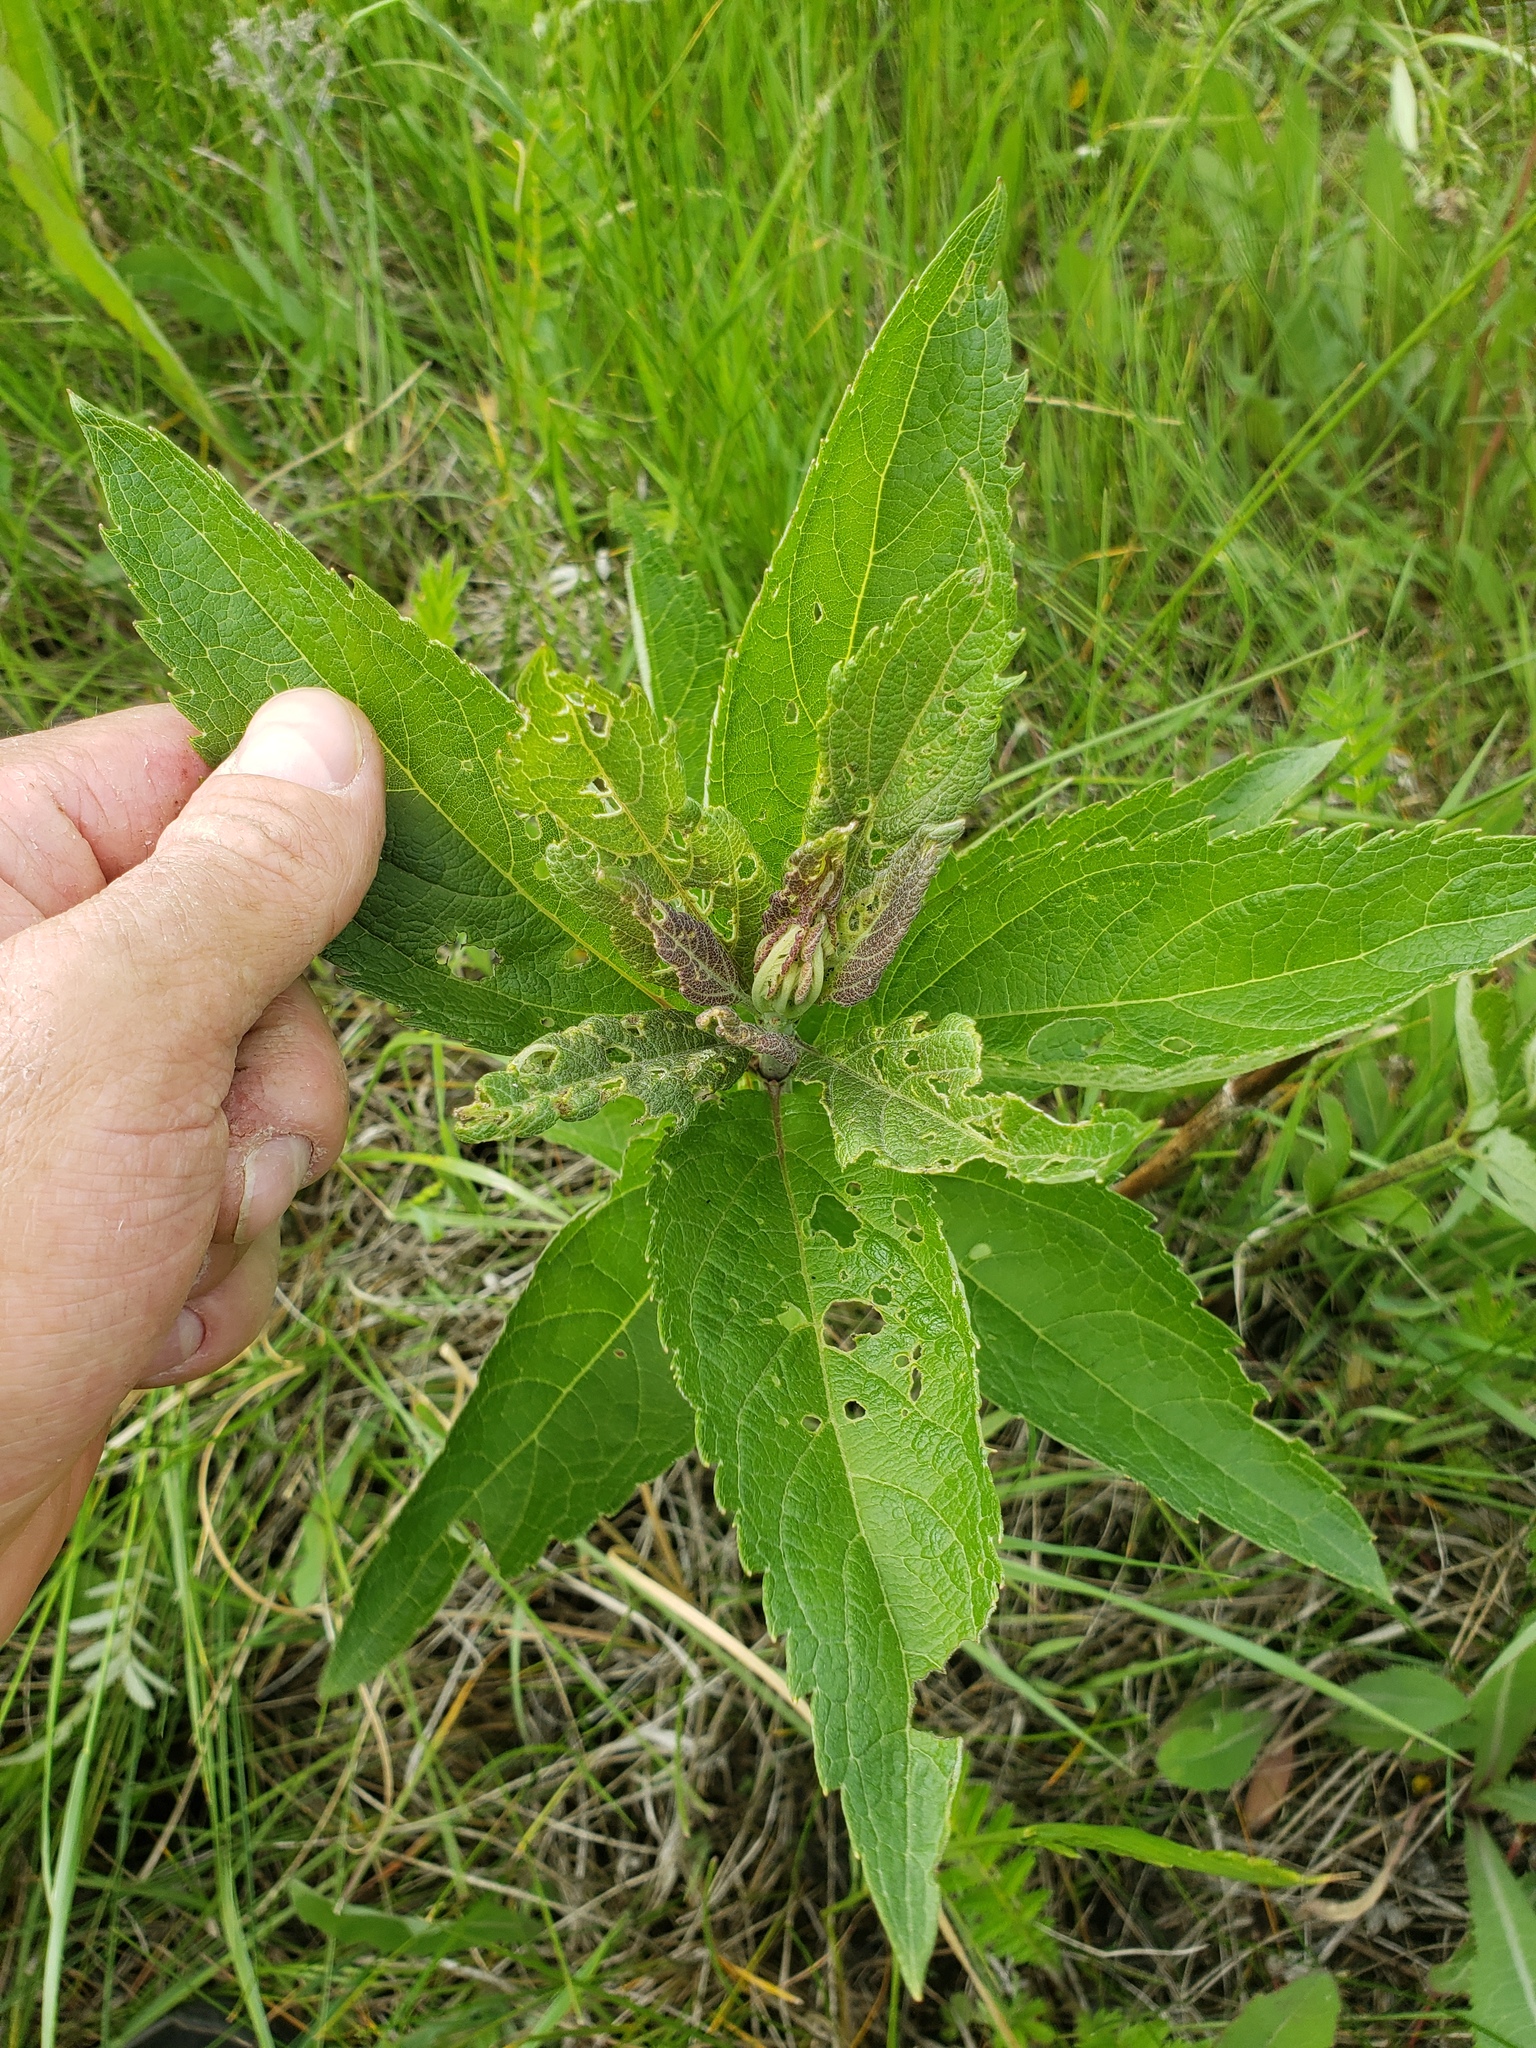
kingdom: Plantae
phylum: Tracheophyta
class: Magnoliopsida
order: Asterales
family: Asteraceae
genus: Eutrochium
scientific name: Eutrochium maculatum
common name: Spotted joe pye weed
